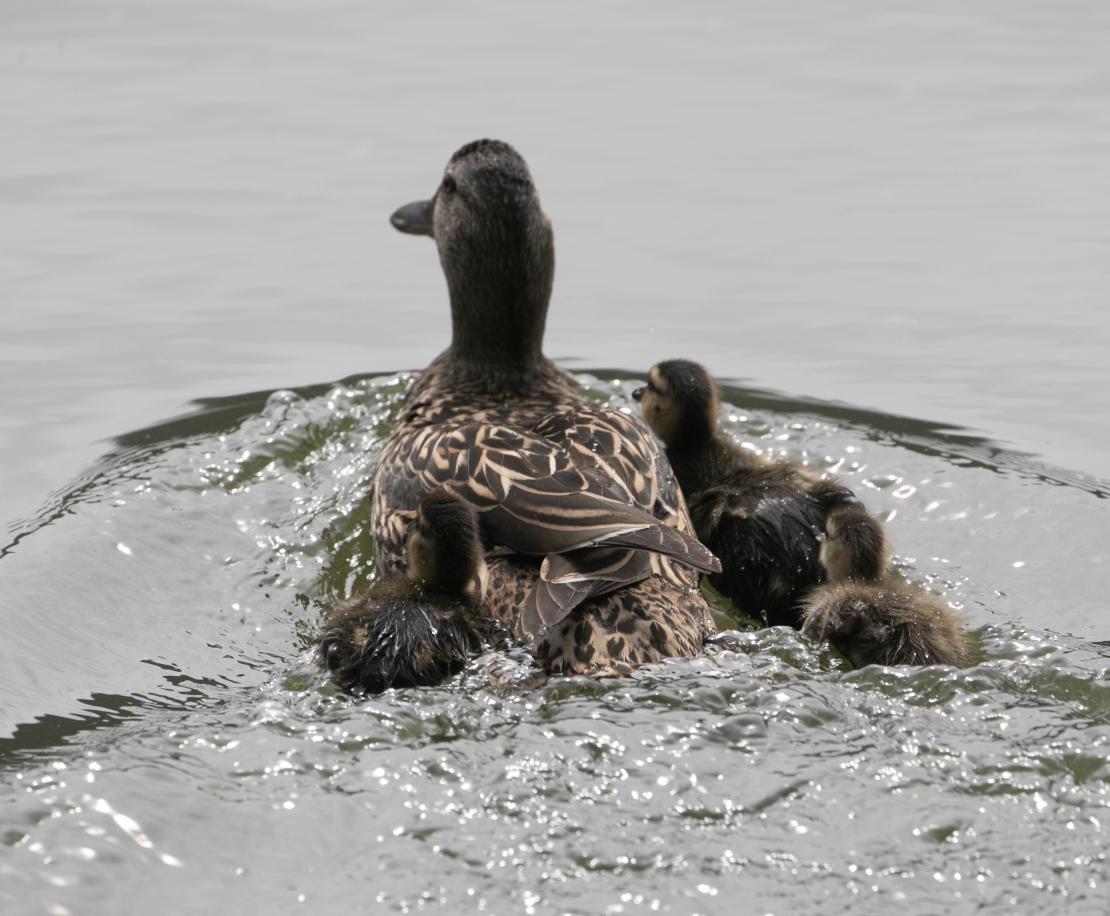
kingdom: Animalia
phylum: Chordata
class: Aves
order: Anseriformes
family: Anatidae
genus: Anas
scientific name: Anas platyrhynchos
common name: Mallard
